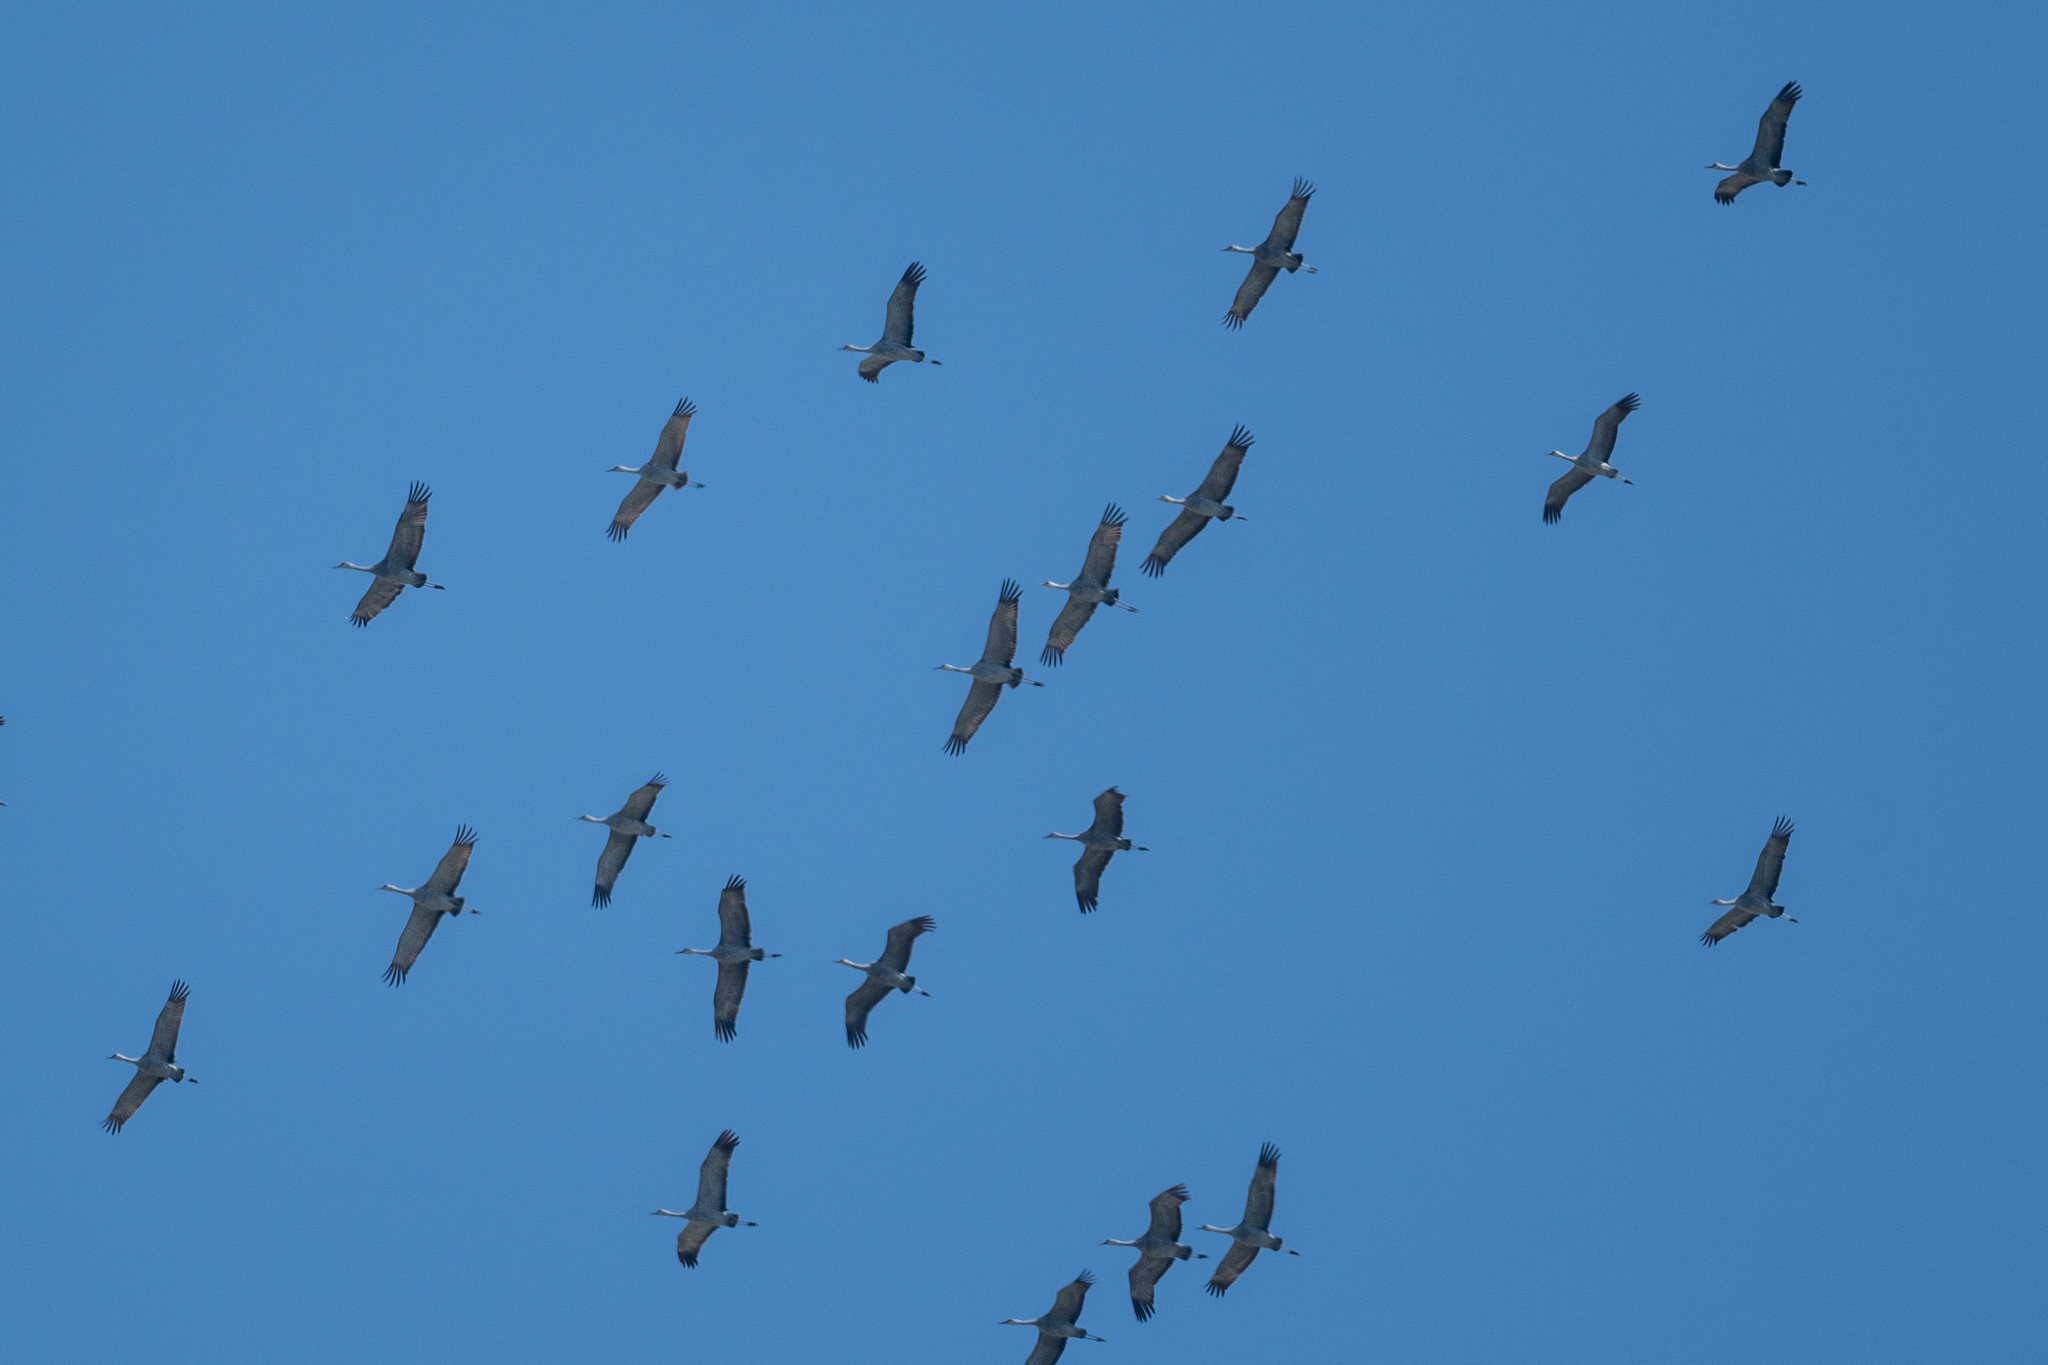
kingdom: Animalia
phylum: Chordata
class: Aves
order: Gruiformes
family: Gruidae
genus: Grus
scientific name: Grus canadensis
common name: Sandhill crane
